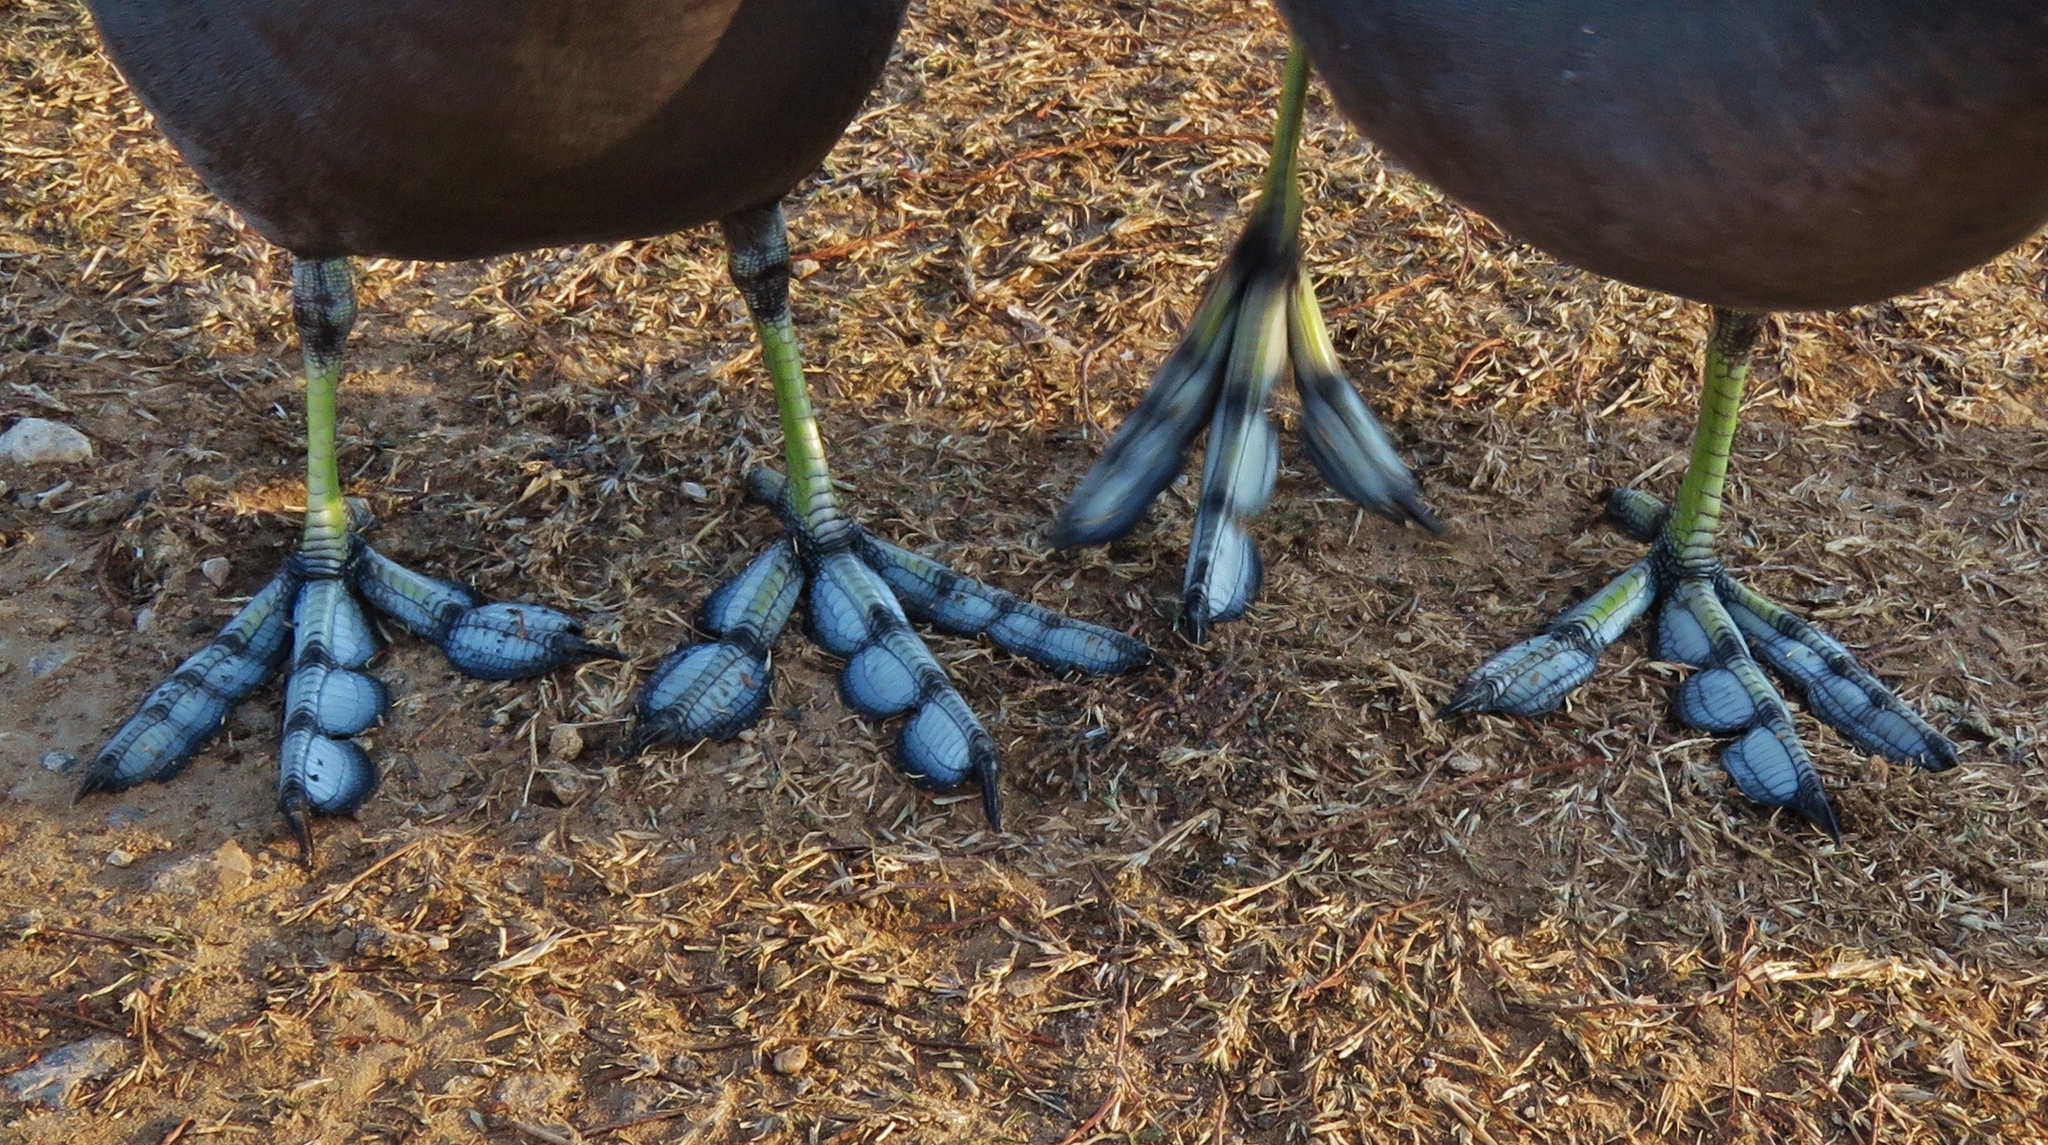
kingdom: Animalia
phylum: Chordata
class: Aves
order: Gruiformes
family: Rallidae
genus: Fulica
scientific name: Fulica americana
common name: American coot
